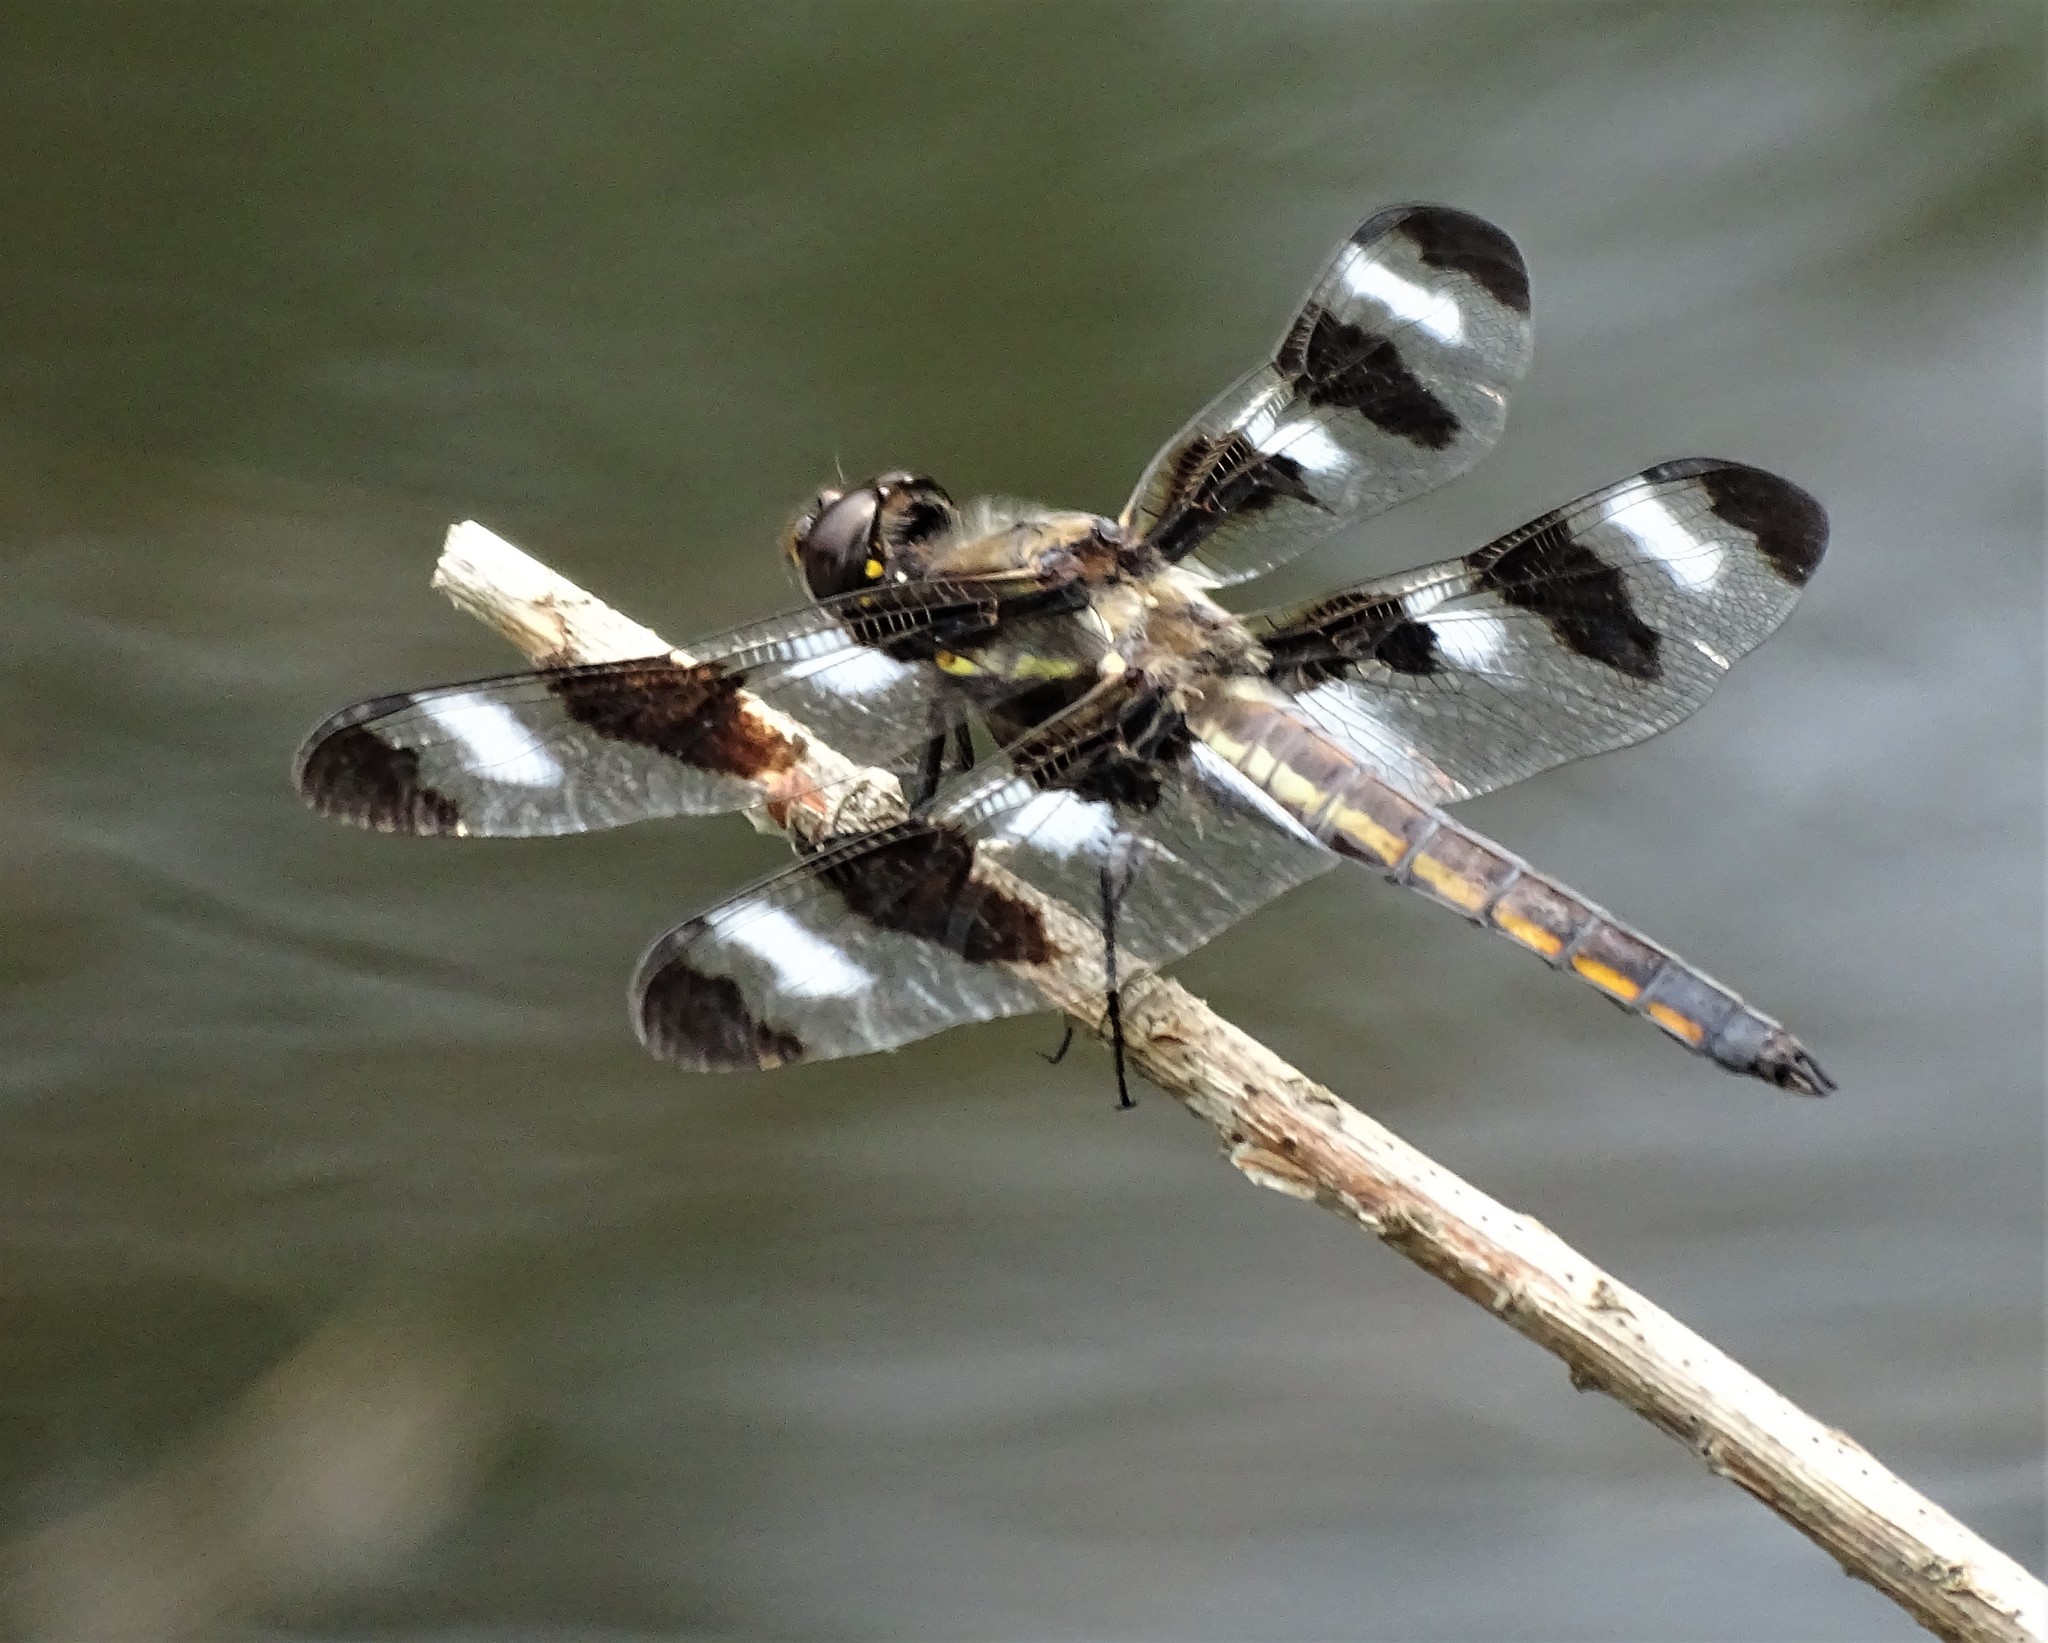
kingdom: Animalia
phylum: Arthropoda
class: Insecta
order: Odonata
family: Libellulidae
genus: Libellula
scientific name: Libellula pulchella
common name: Twelve-spotted skimmer
